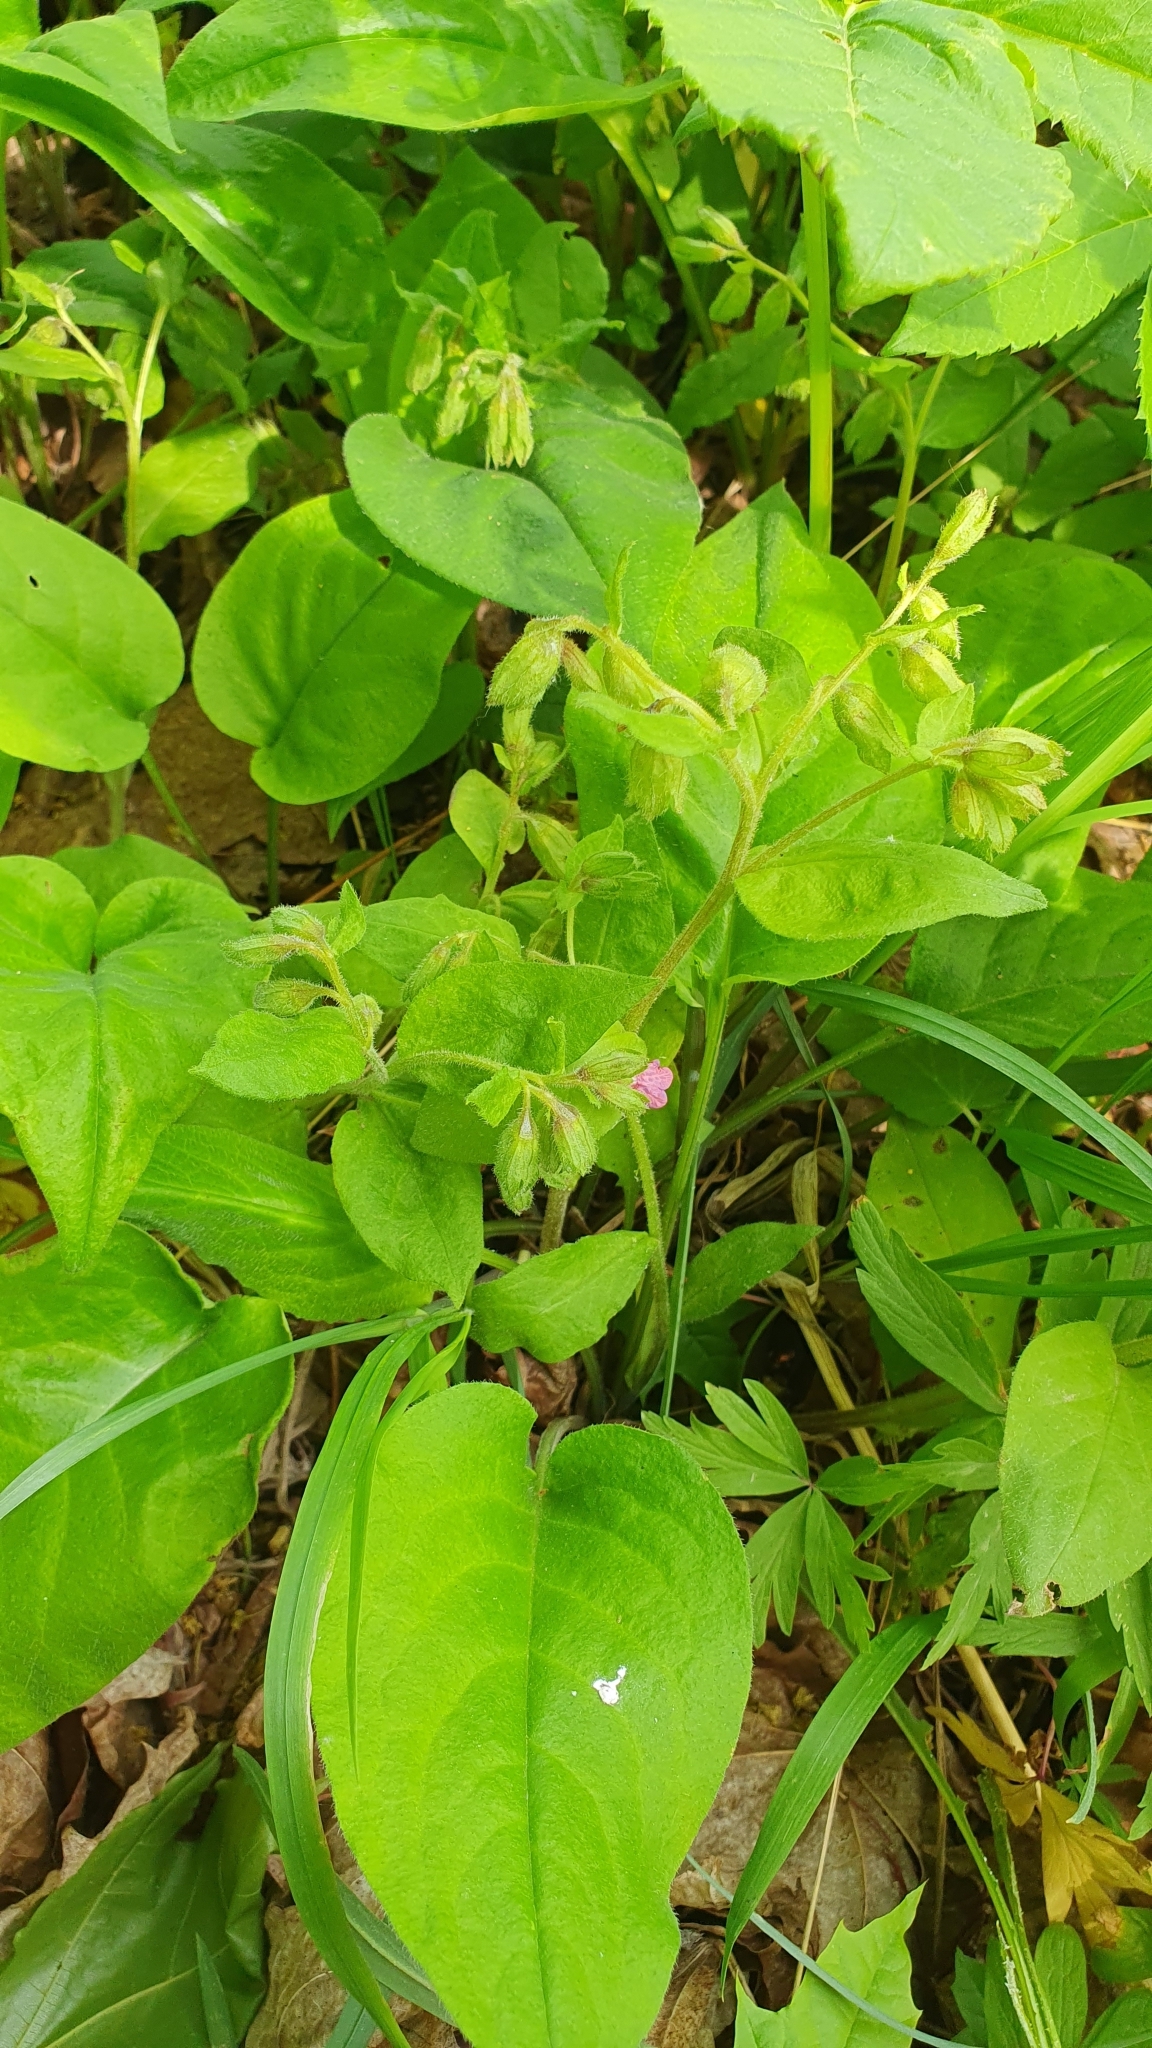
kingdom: Plantae
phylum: Tracheophyta
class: Magnoliopsida
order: Boraginales
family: Boraginaceae
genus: Pulmonaria
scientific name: Pulmonaria obscura
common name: Suffolk lungwort
